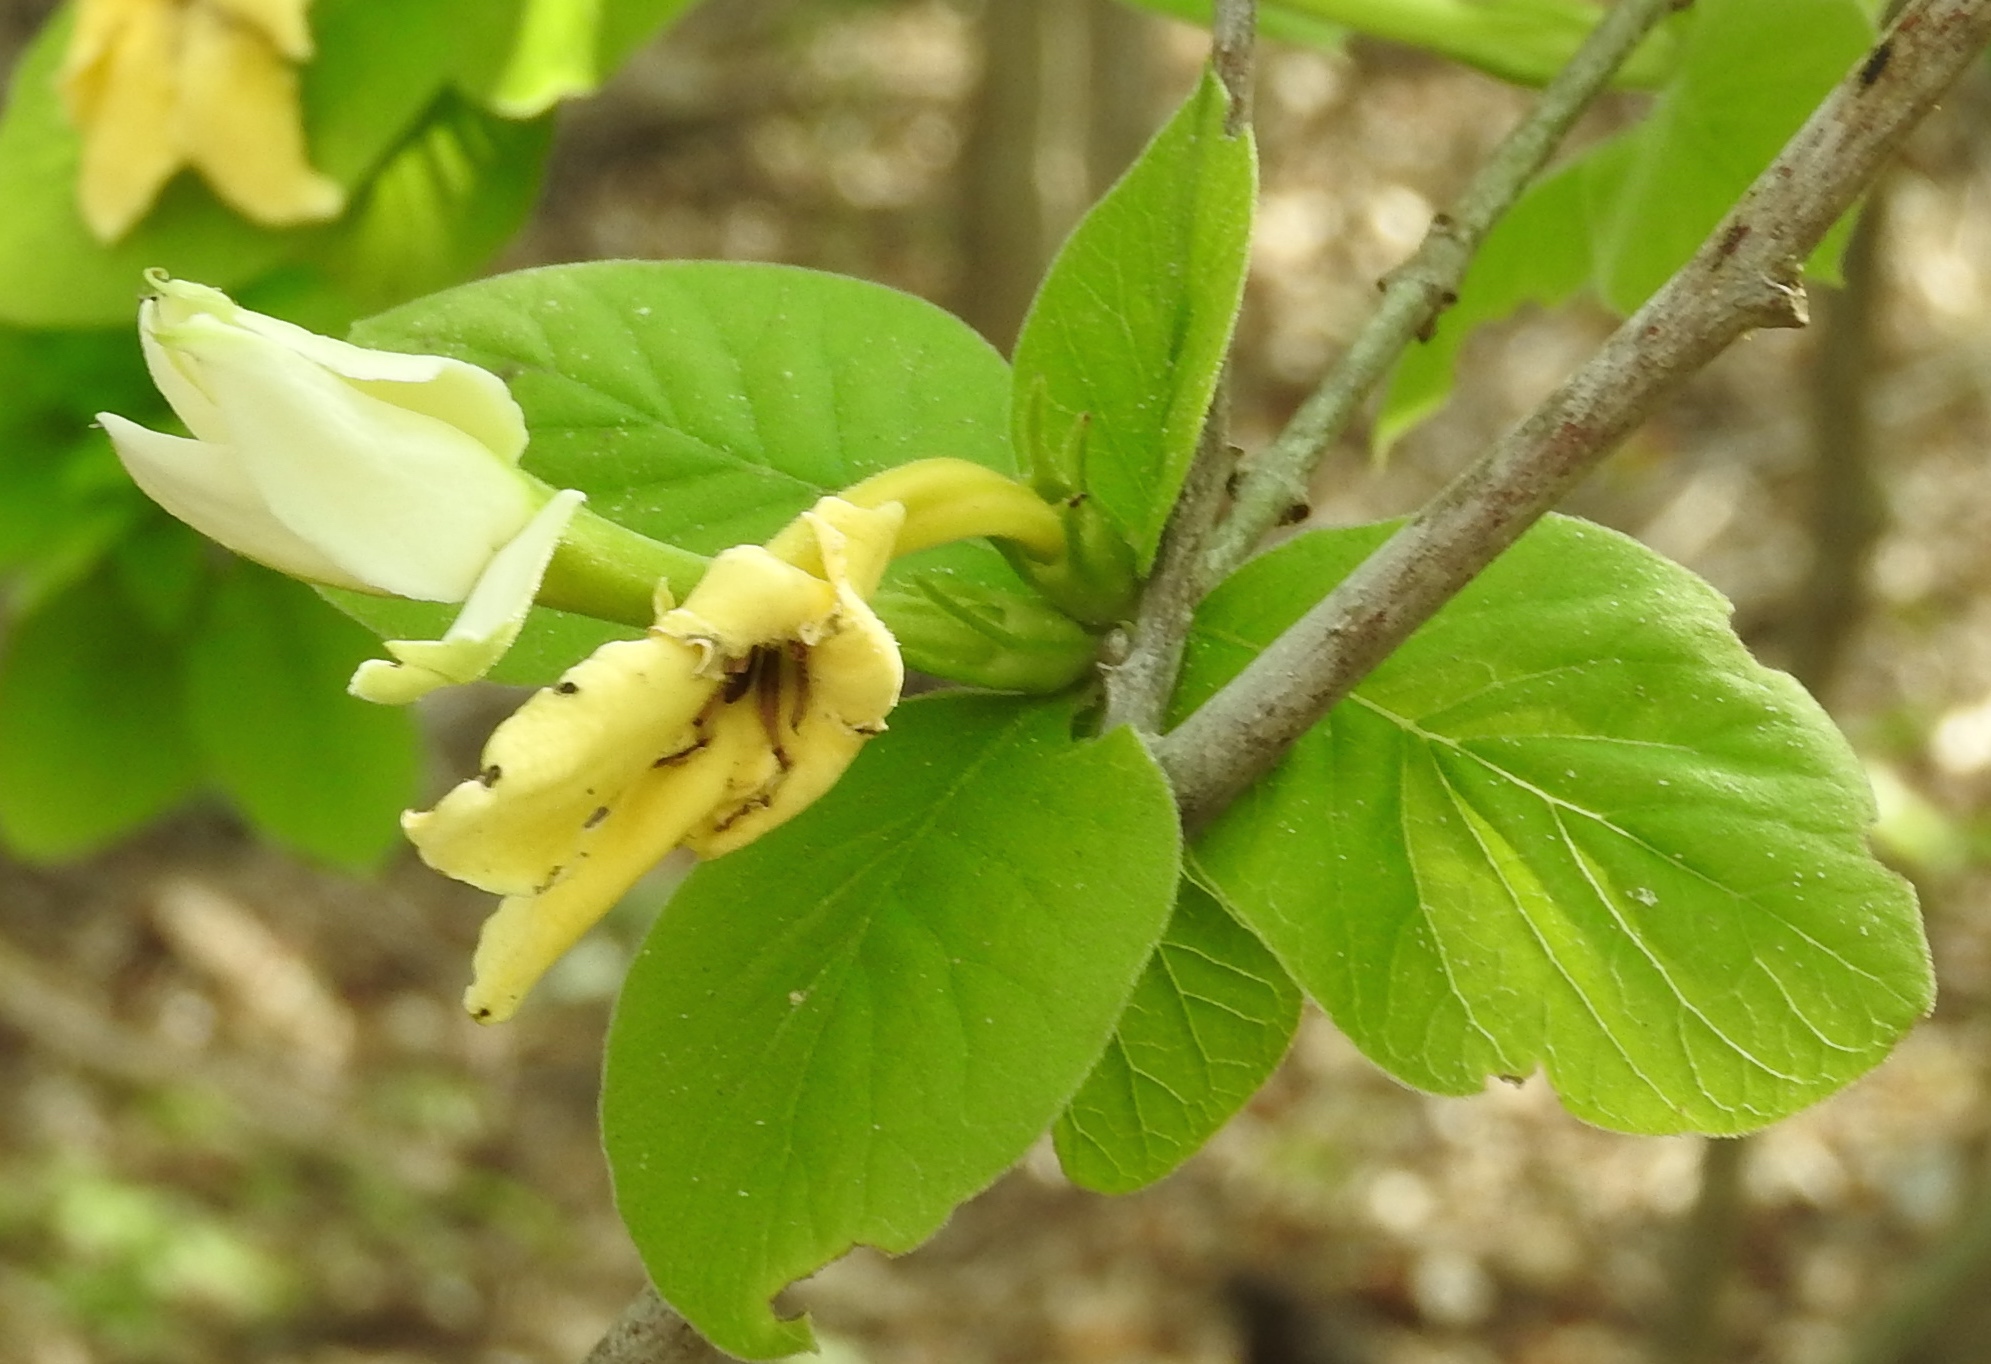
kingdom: Plantae
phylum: Tracheophyta
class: Magnoliopsida
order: Gentianales
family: Rubiaceae
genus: Randia
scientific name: Randia echinocarpa
